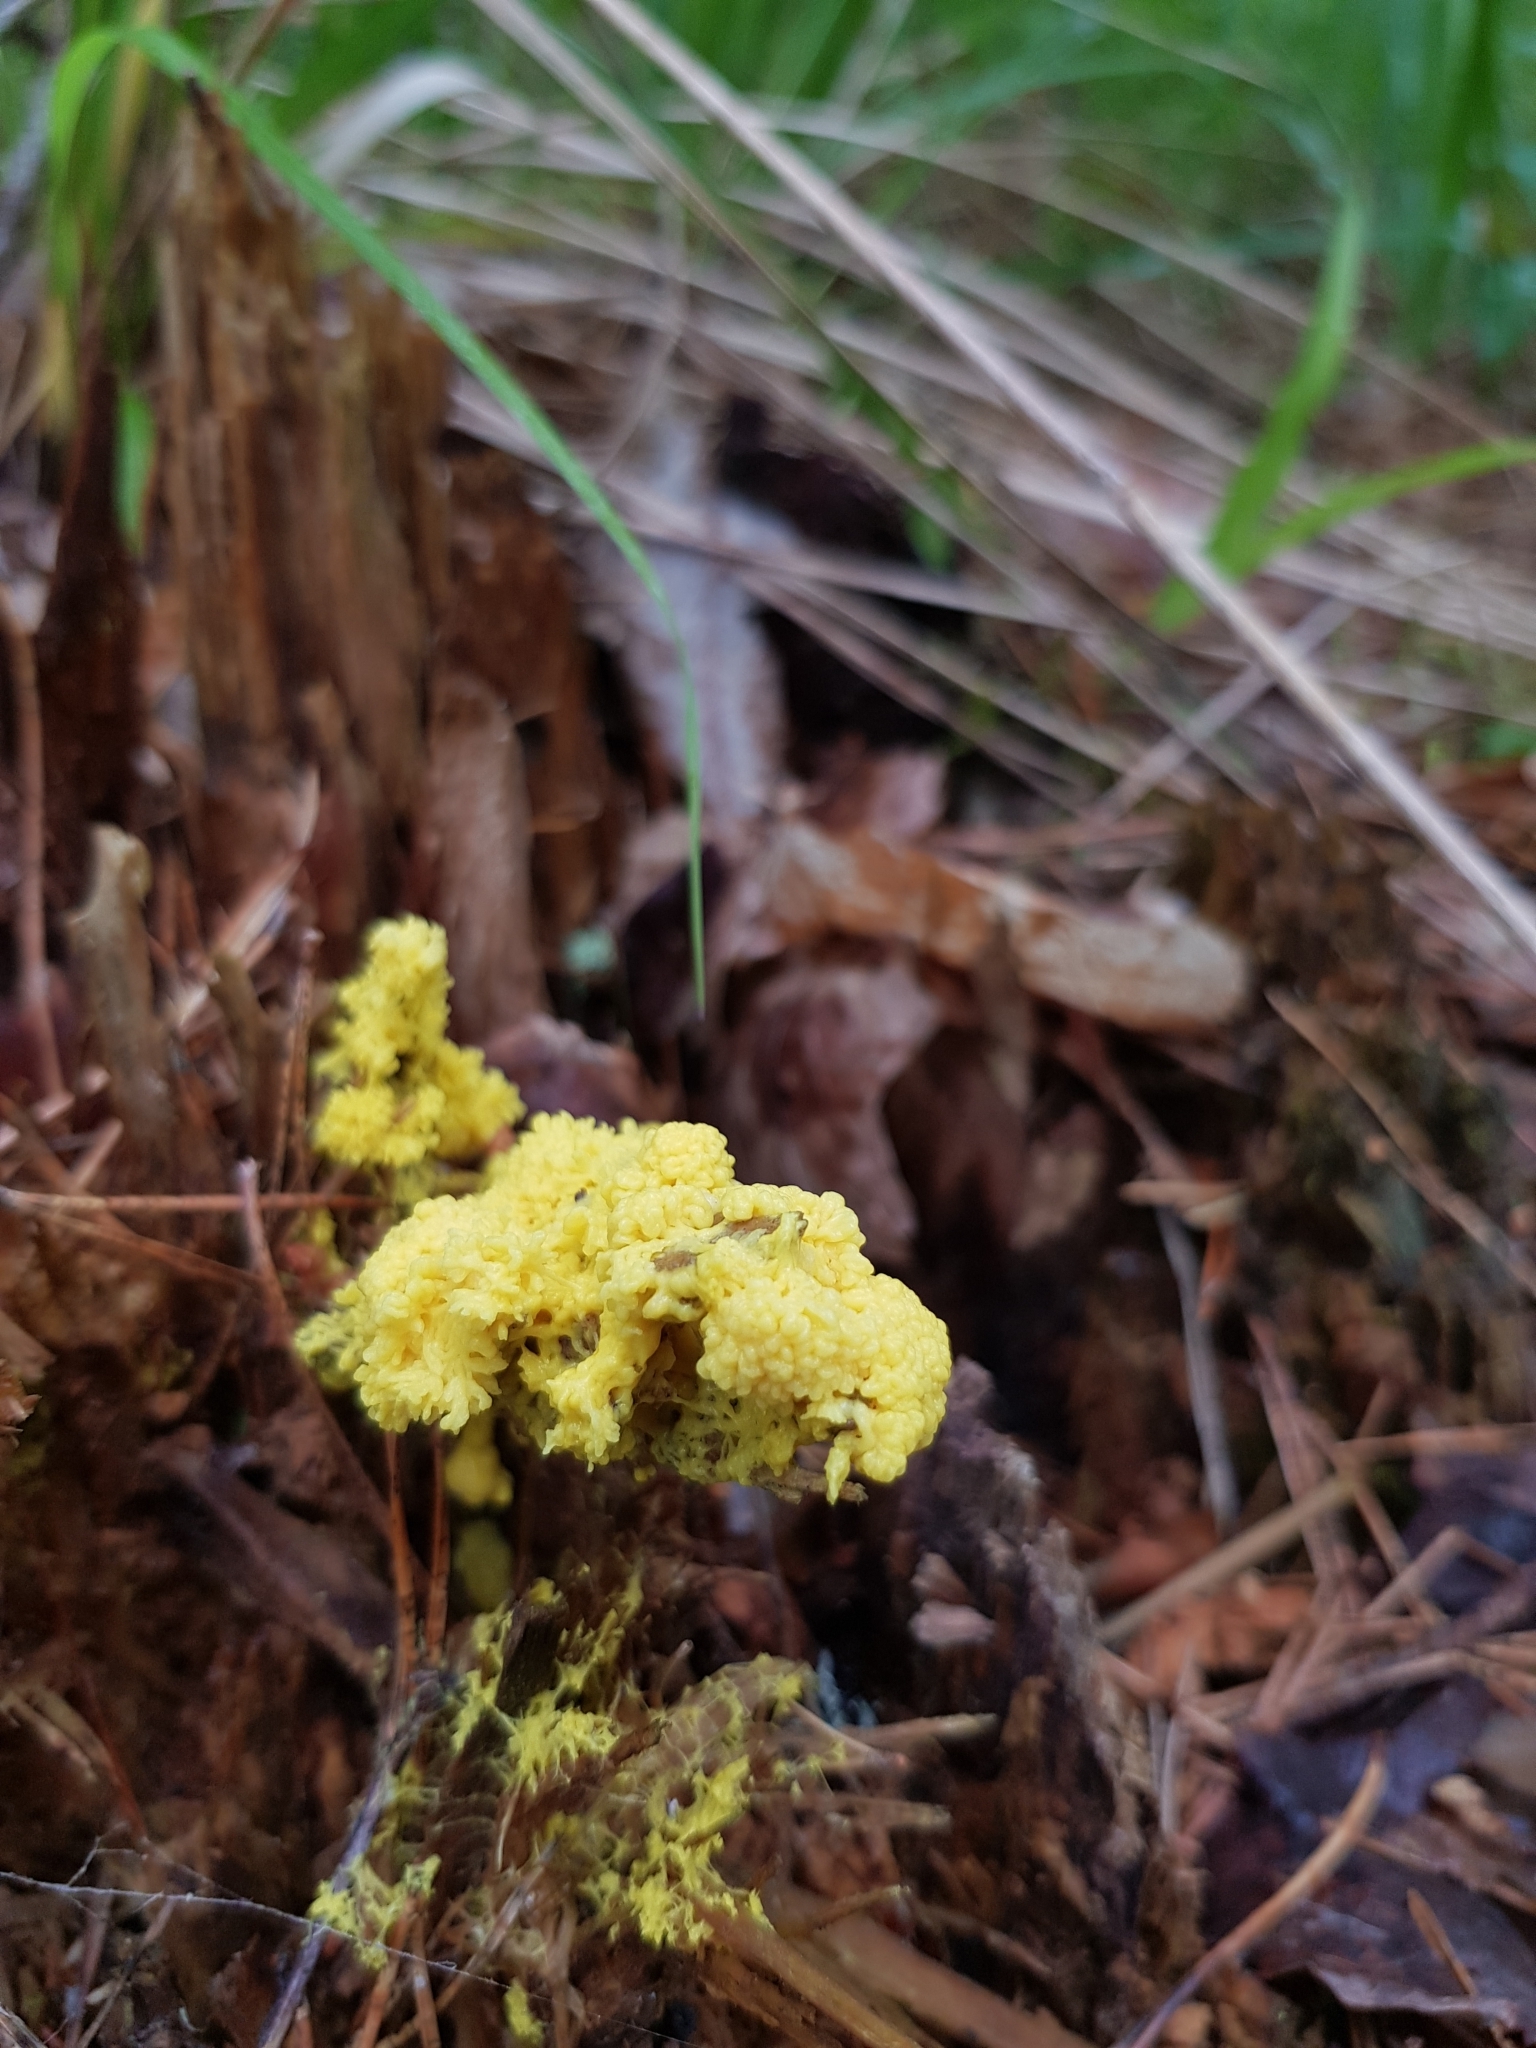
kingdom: Protozoa
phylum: Mycetozoa
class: Myxomycetes
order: Physarales
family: Physaraceae
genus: Fuligo
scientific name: Fuligo septica
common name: Dog vomit slime mold
